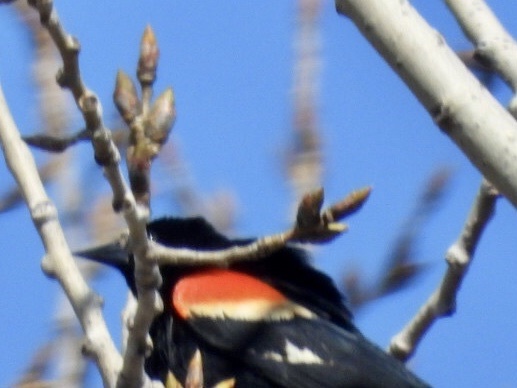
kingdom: Animalia
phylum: Chordata
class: Aves
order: Passeriformes
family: Icteridae
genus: Agelaius
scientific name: Agelaius phoeniceus
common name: Red-winged blackbird
